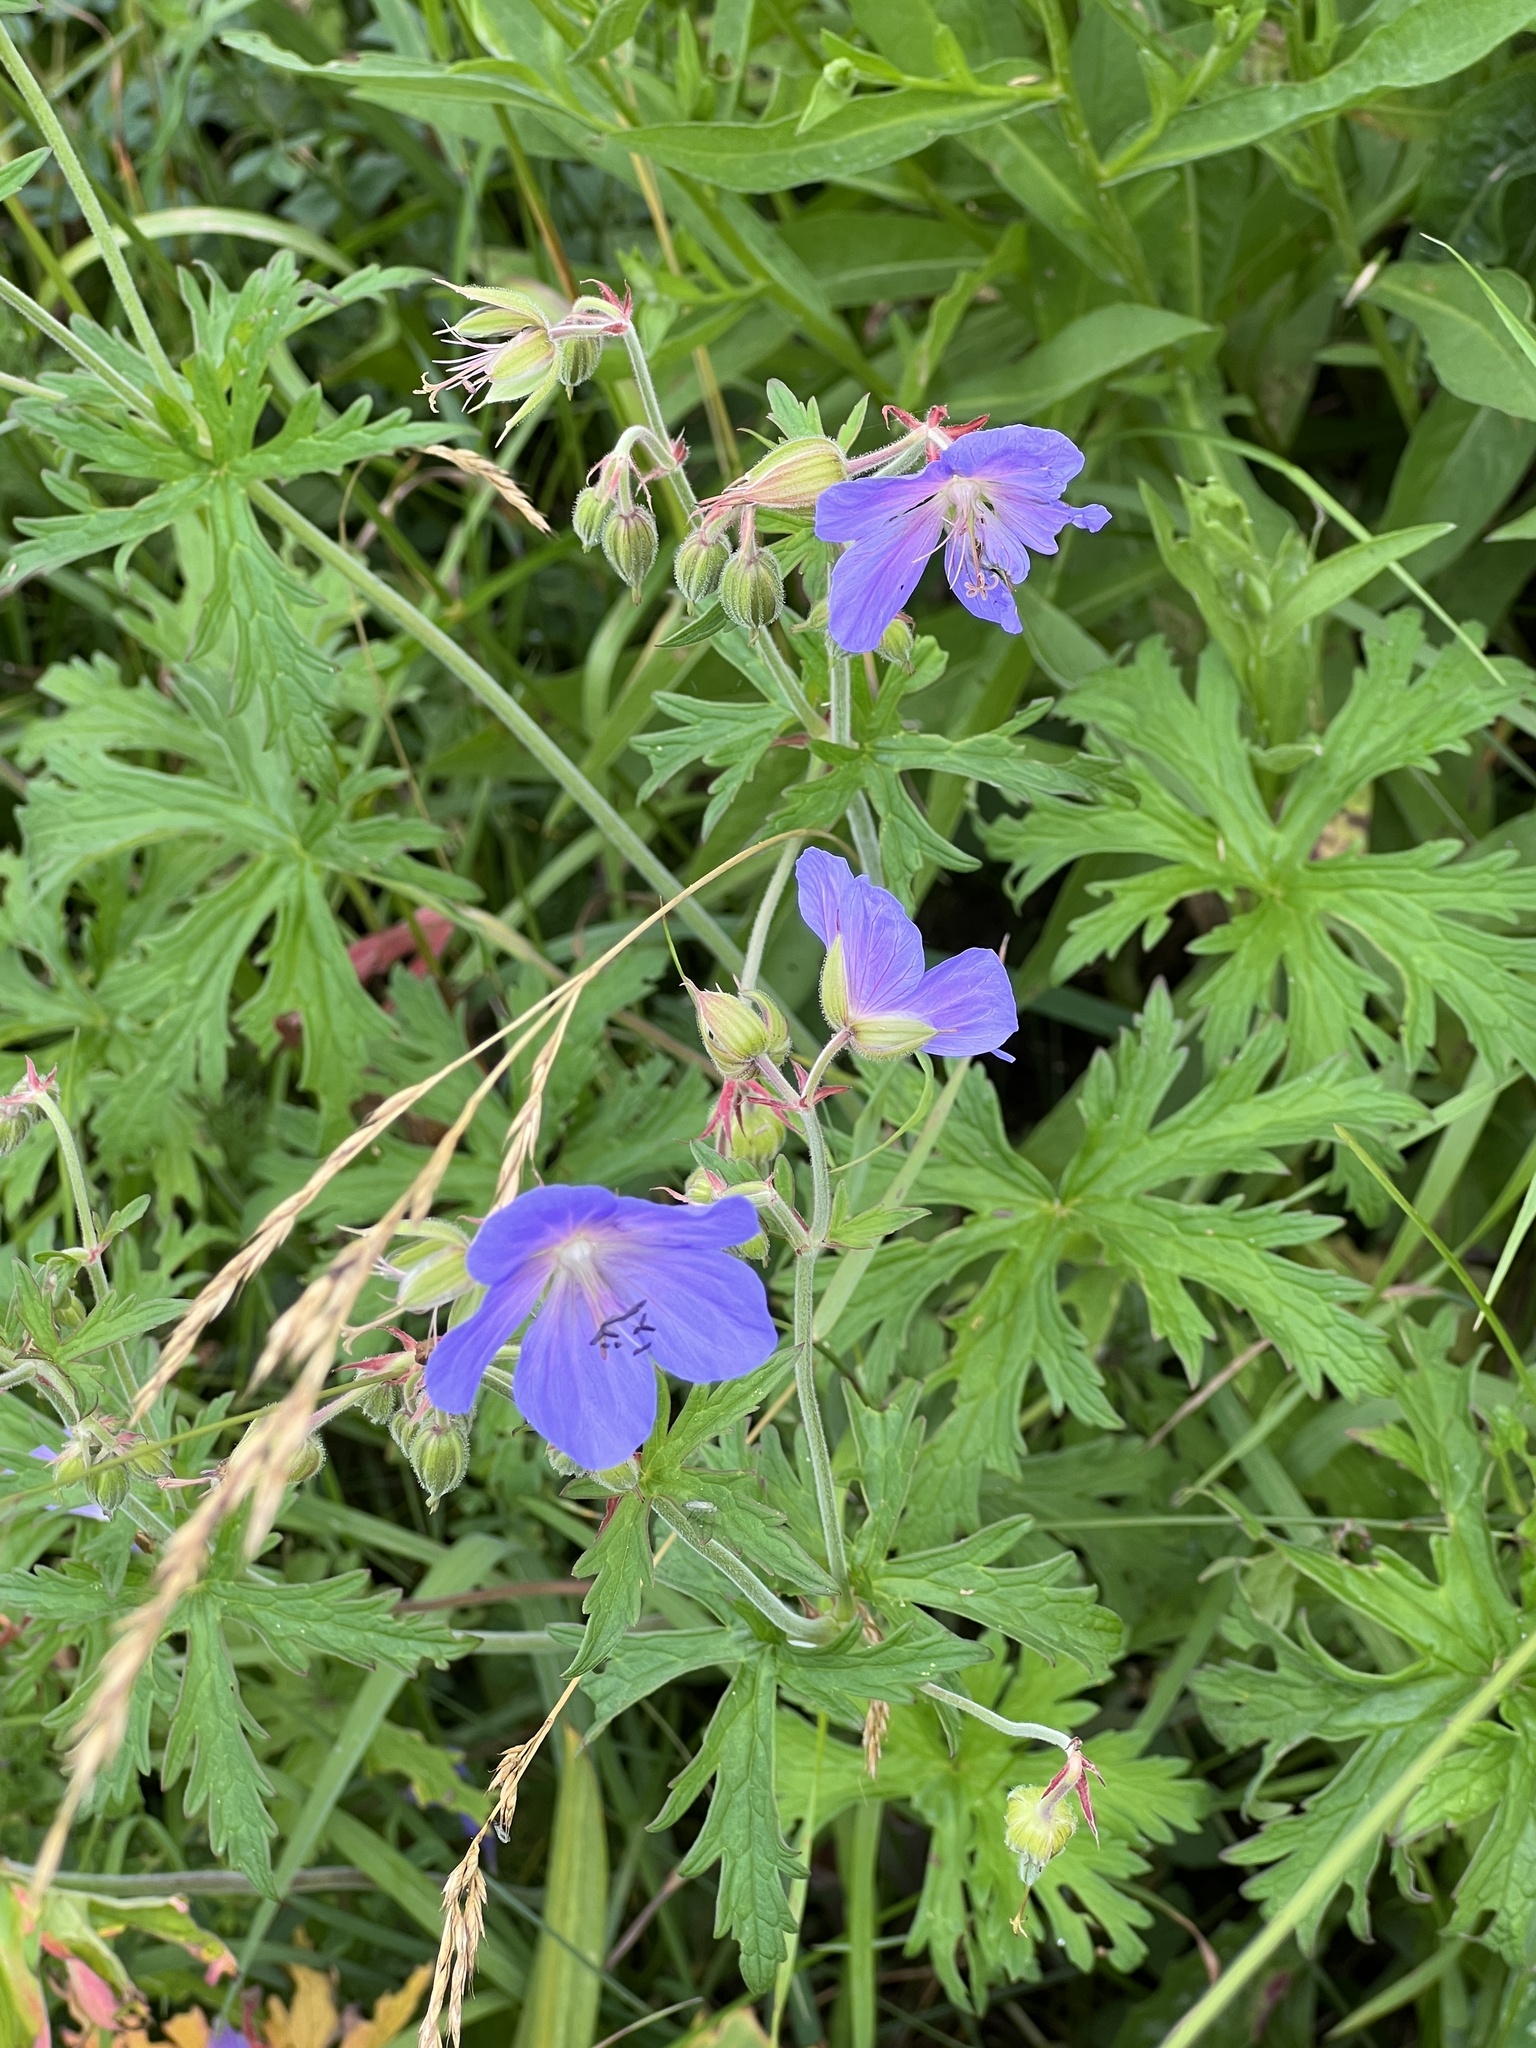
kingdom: Plantae
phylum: Tracheophyta
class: Magnoliopsida
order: Geraniales
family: Geraniaceae
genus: Geranium
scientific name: Geranium pratense
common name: Meadow crane's-bill
